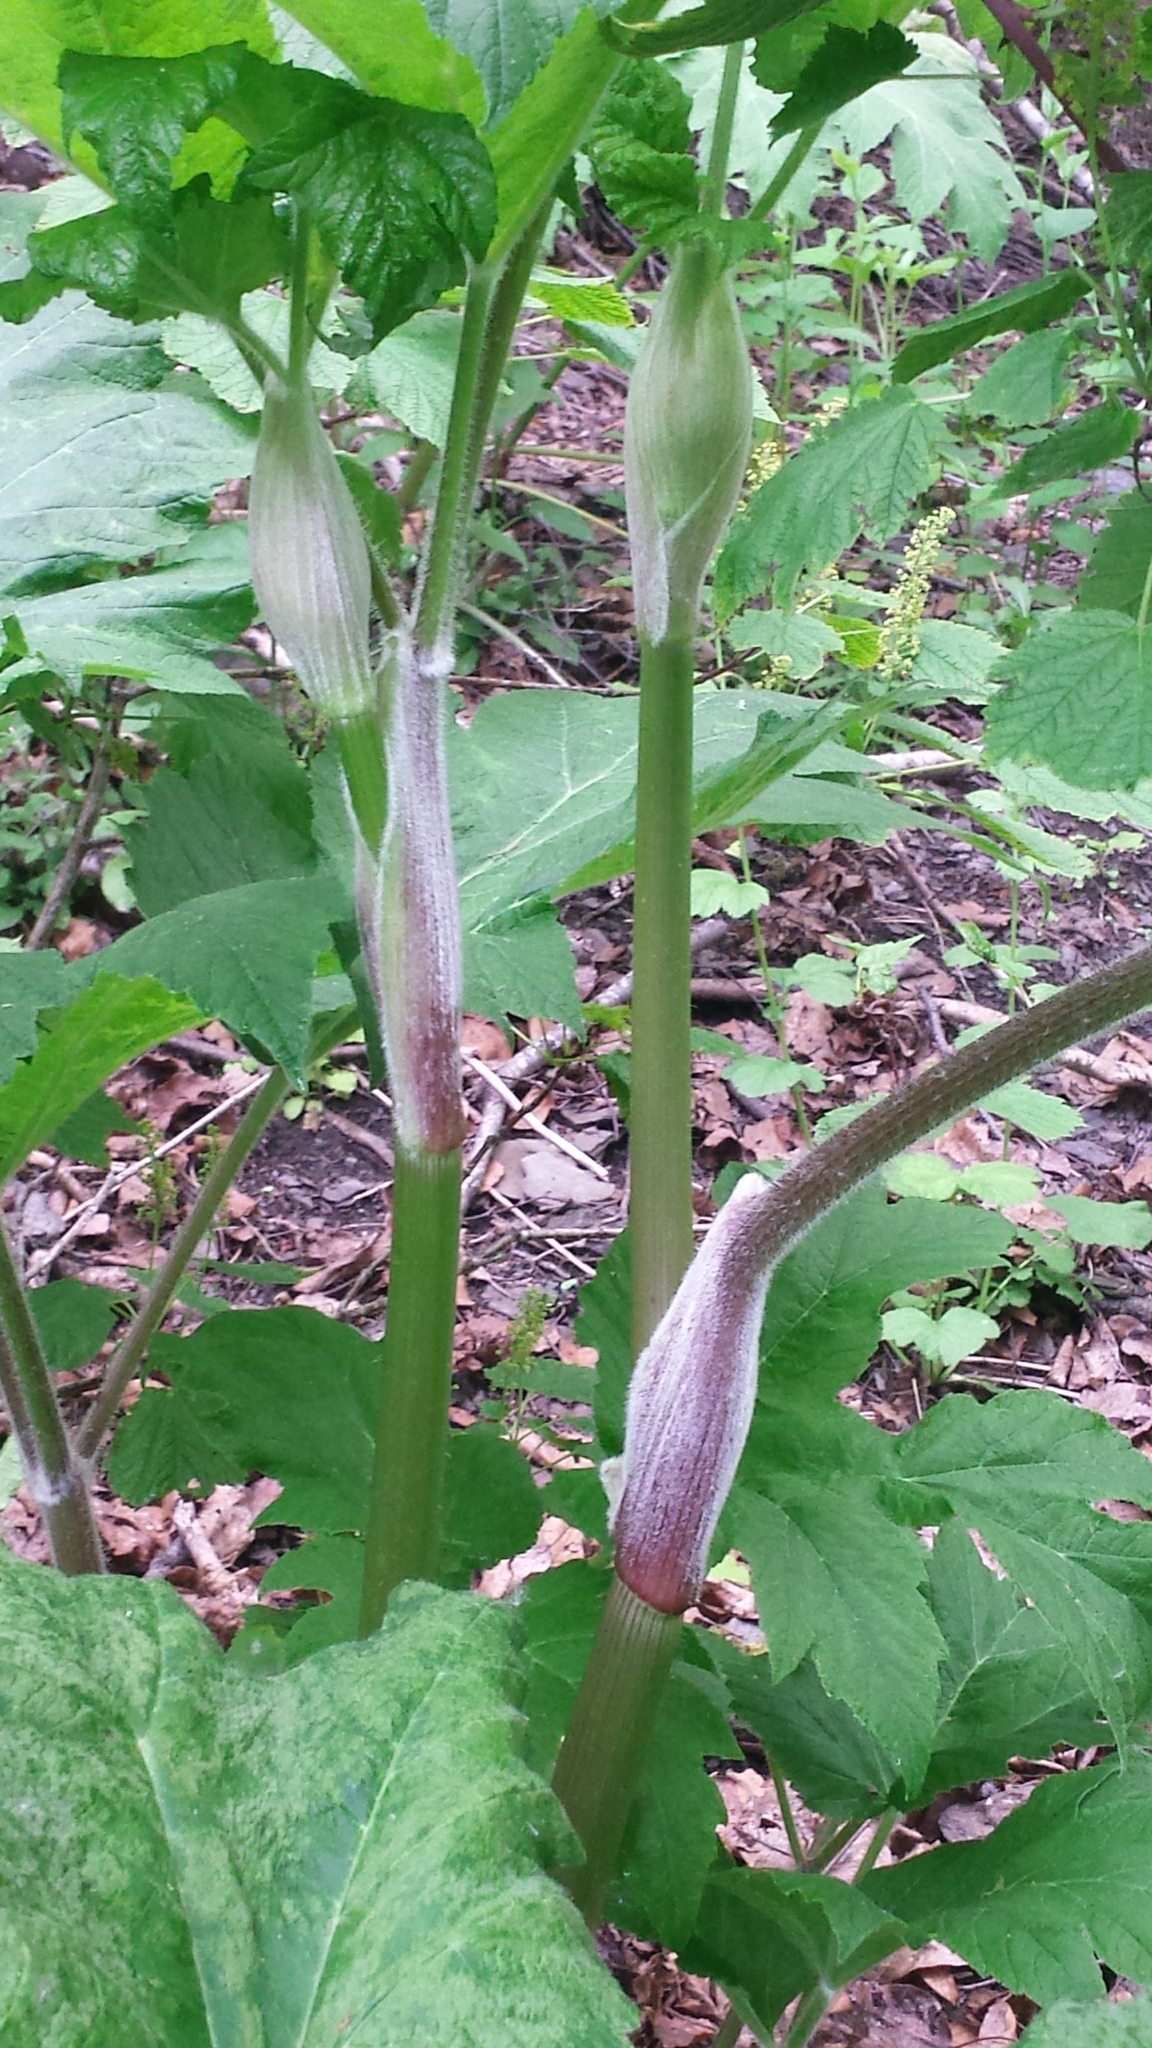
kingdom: Plantae
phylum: Tracheophyta
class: Magnoliopsida
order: Apiales
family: Apiaceae
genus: Heracleum
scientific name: Heracleum maximum
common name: American cow parsnip
